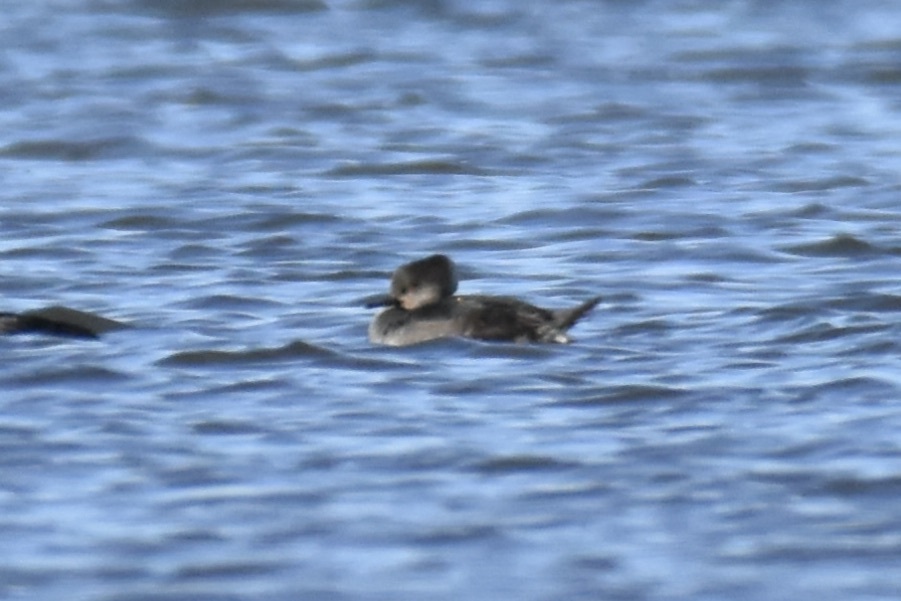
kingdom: Animalia
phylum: Chordata
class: Aves
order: Anseriformes
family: Anatidae
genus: Lophodytes
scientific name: Lophodytes cucullatus
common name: Hooded merganser
